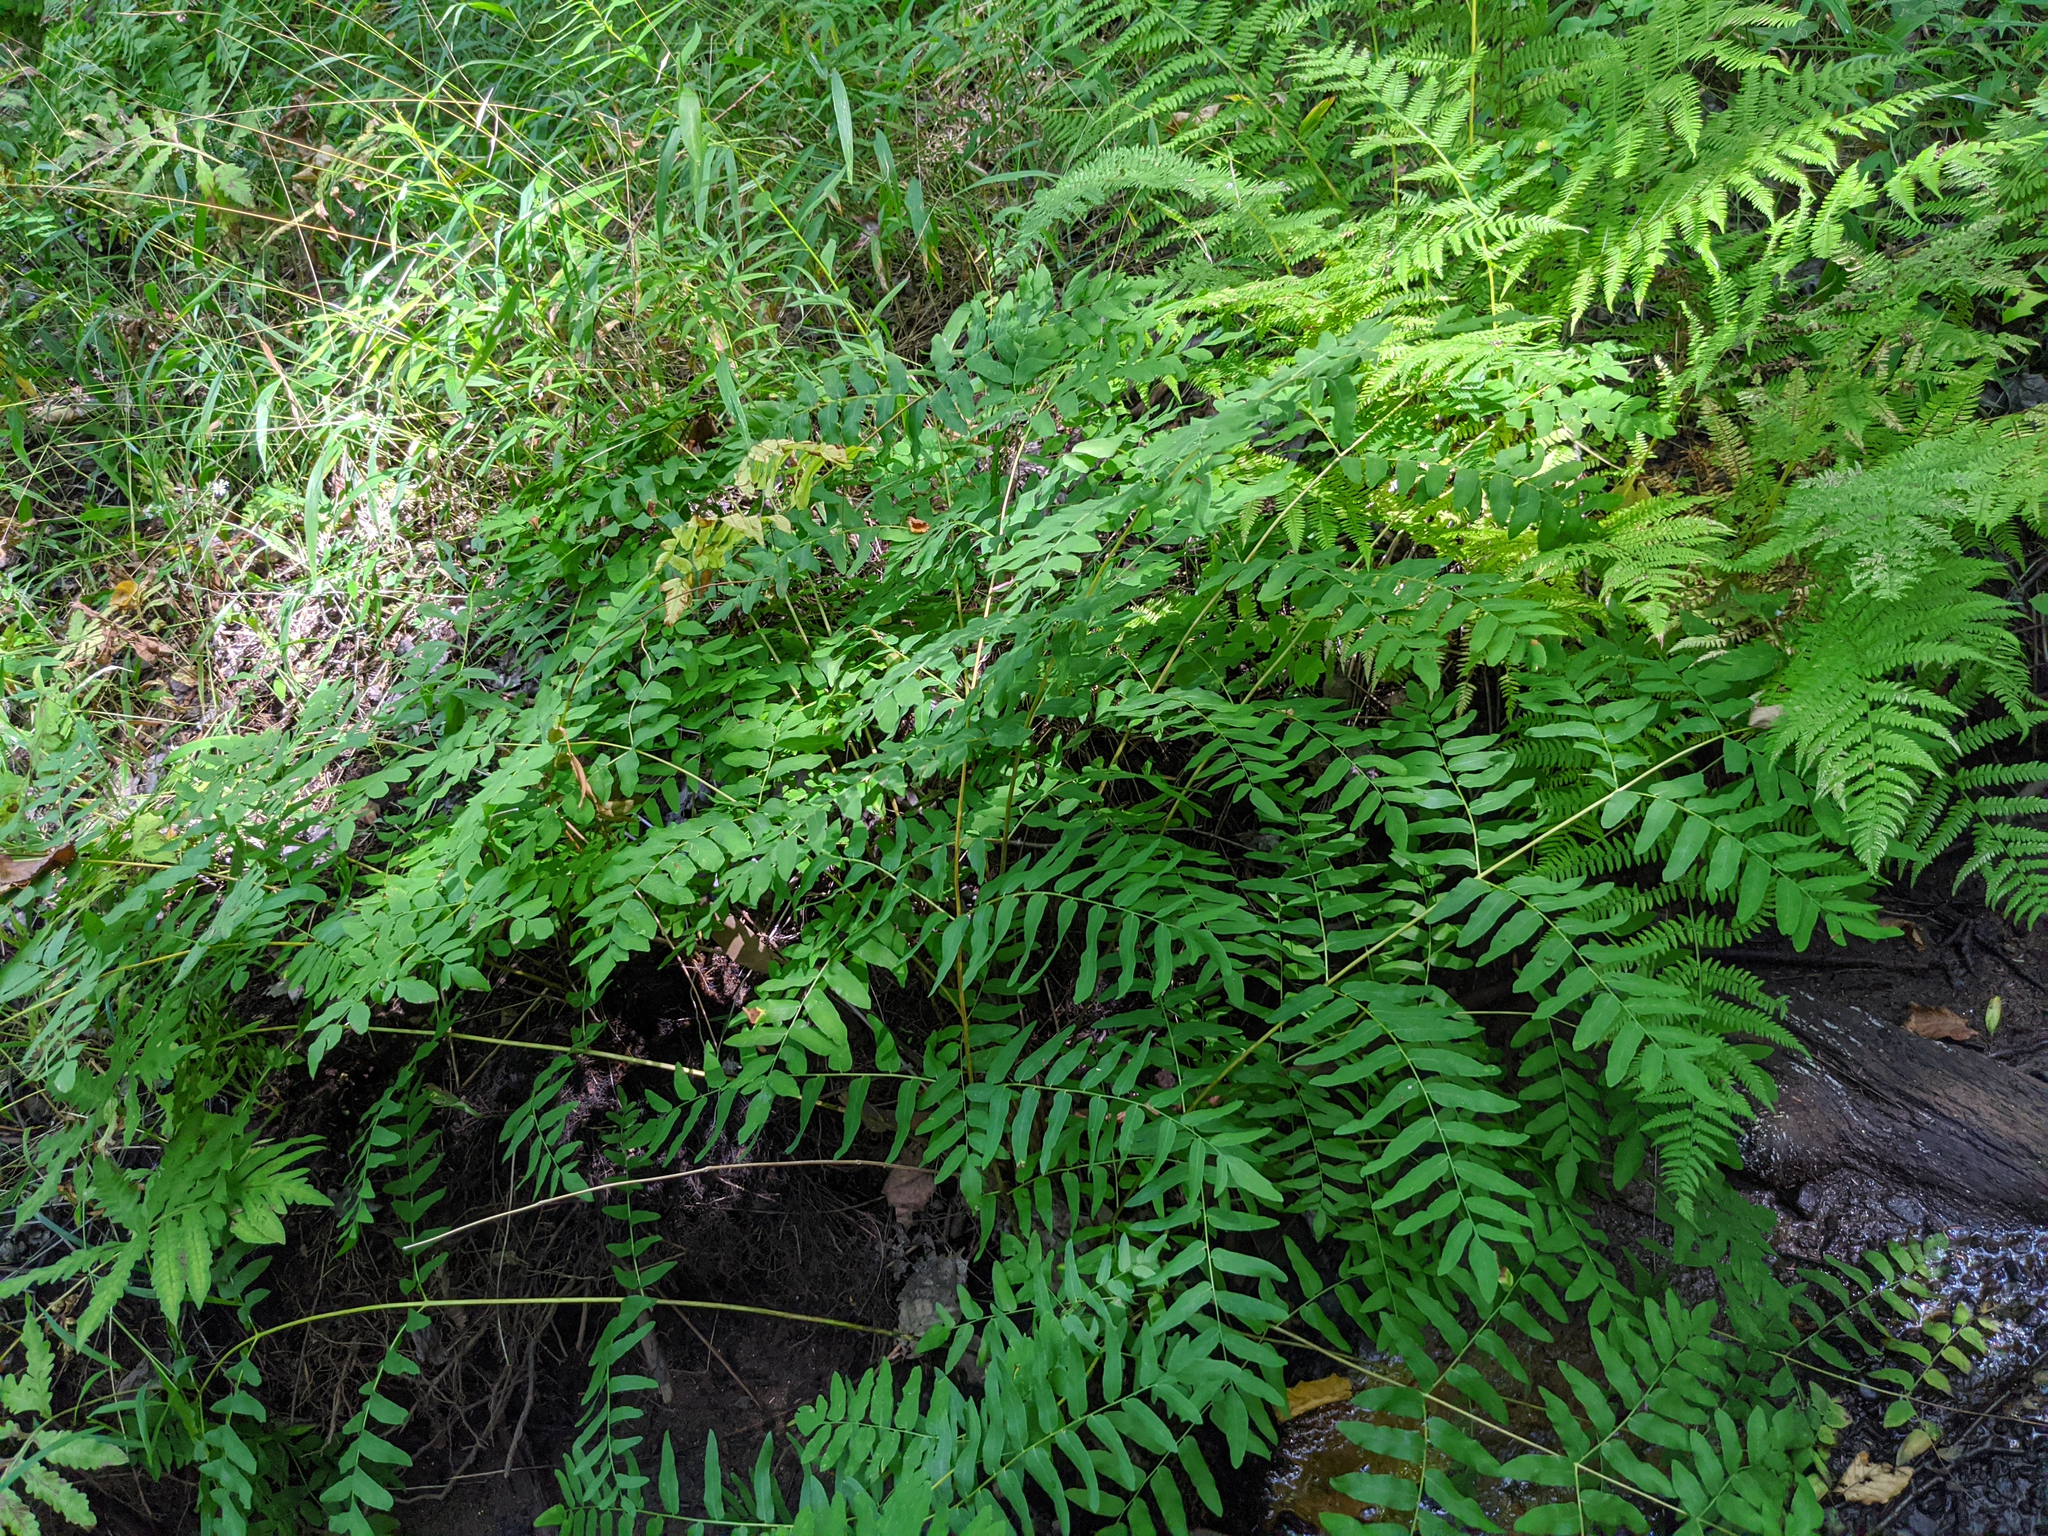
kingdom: Plantae
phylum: Tracheophyta
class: Polypodiopsida
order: Osmundales
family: Osmundaceae
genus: Osmunda
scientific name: Osmunda spectabilis
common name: American royal fern
